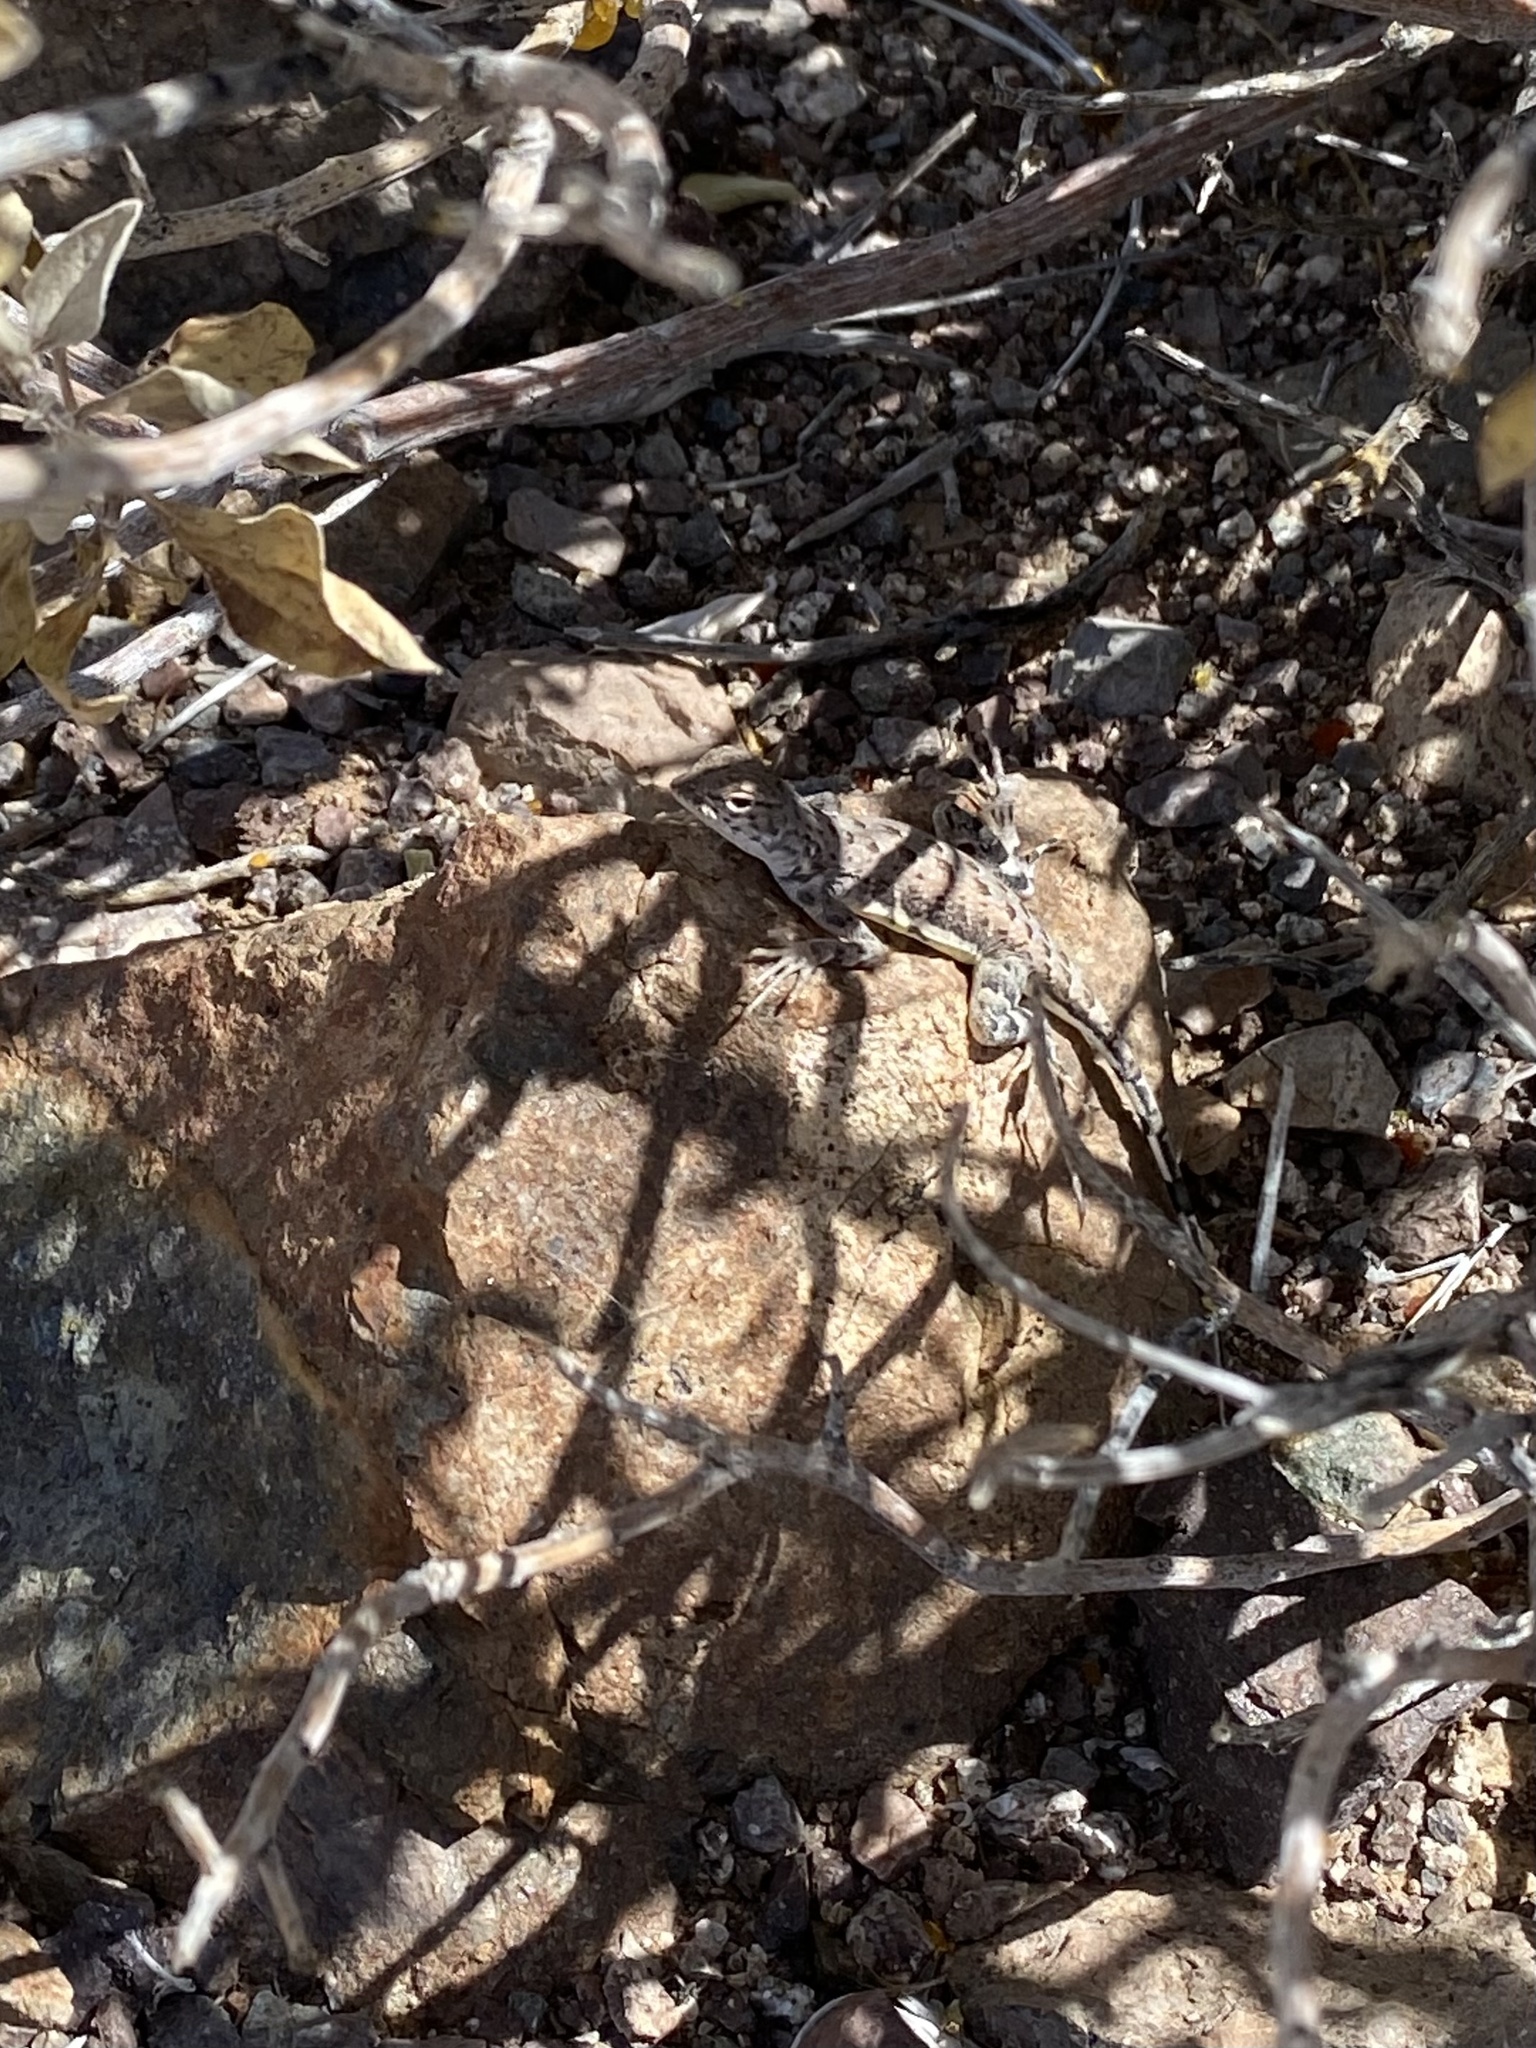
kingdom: Animalia
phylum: Chordata
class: Squamata
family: Phrynosomatidae
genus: Callisaurus
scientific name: Callisaurus draconoides
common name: Zebra-tailed lizard
